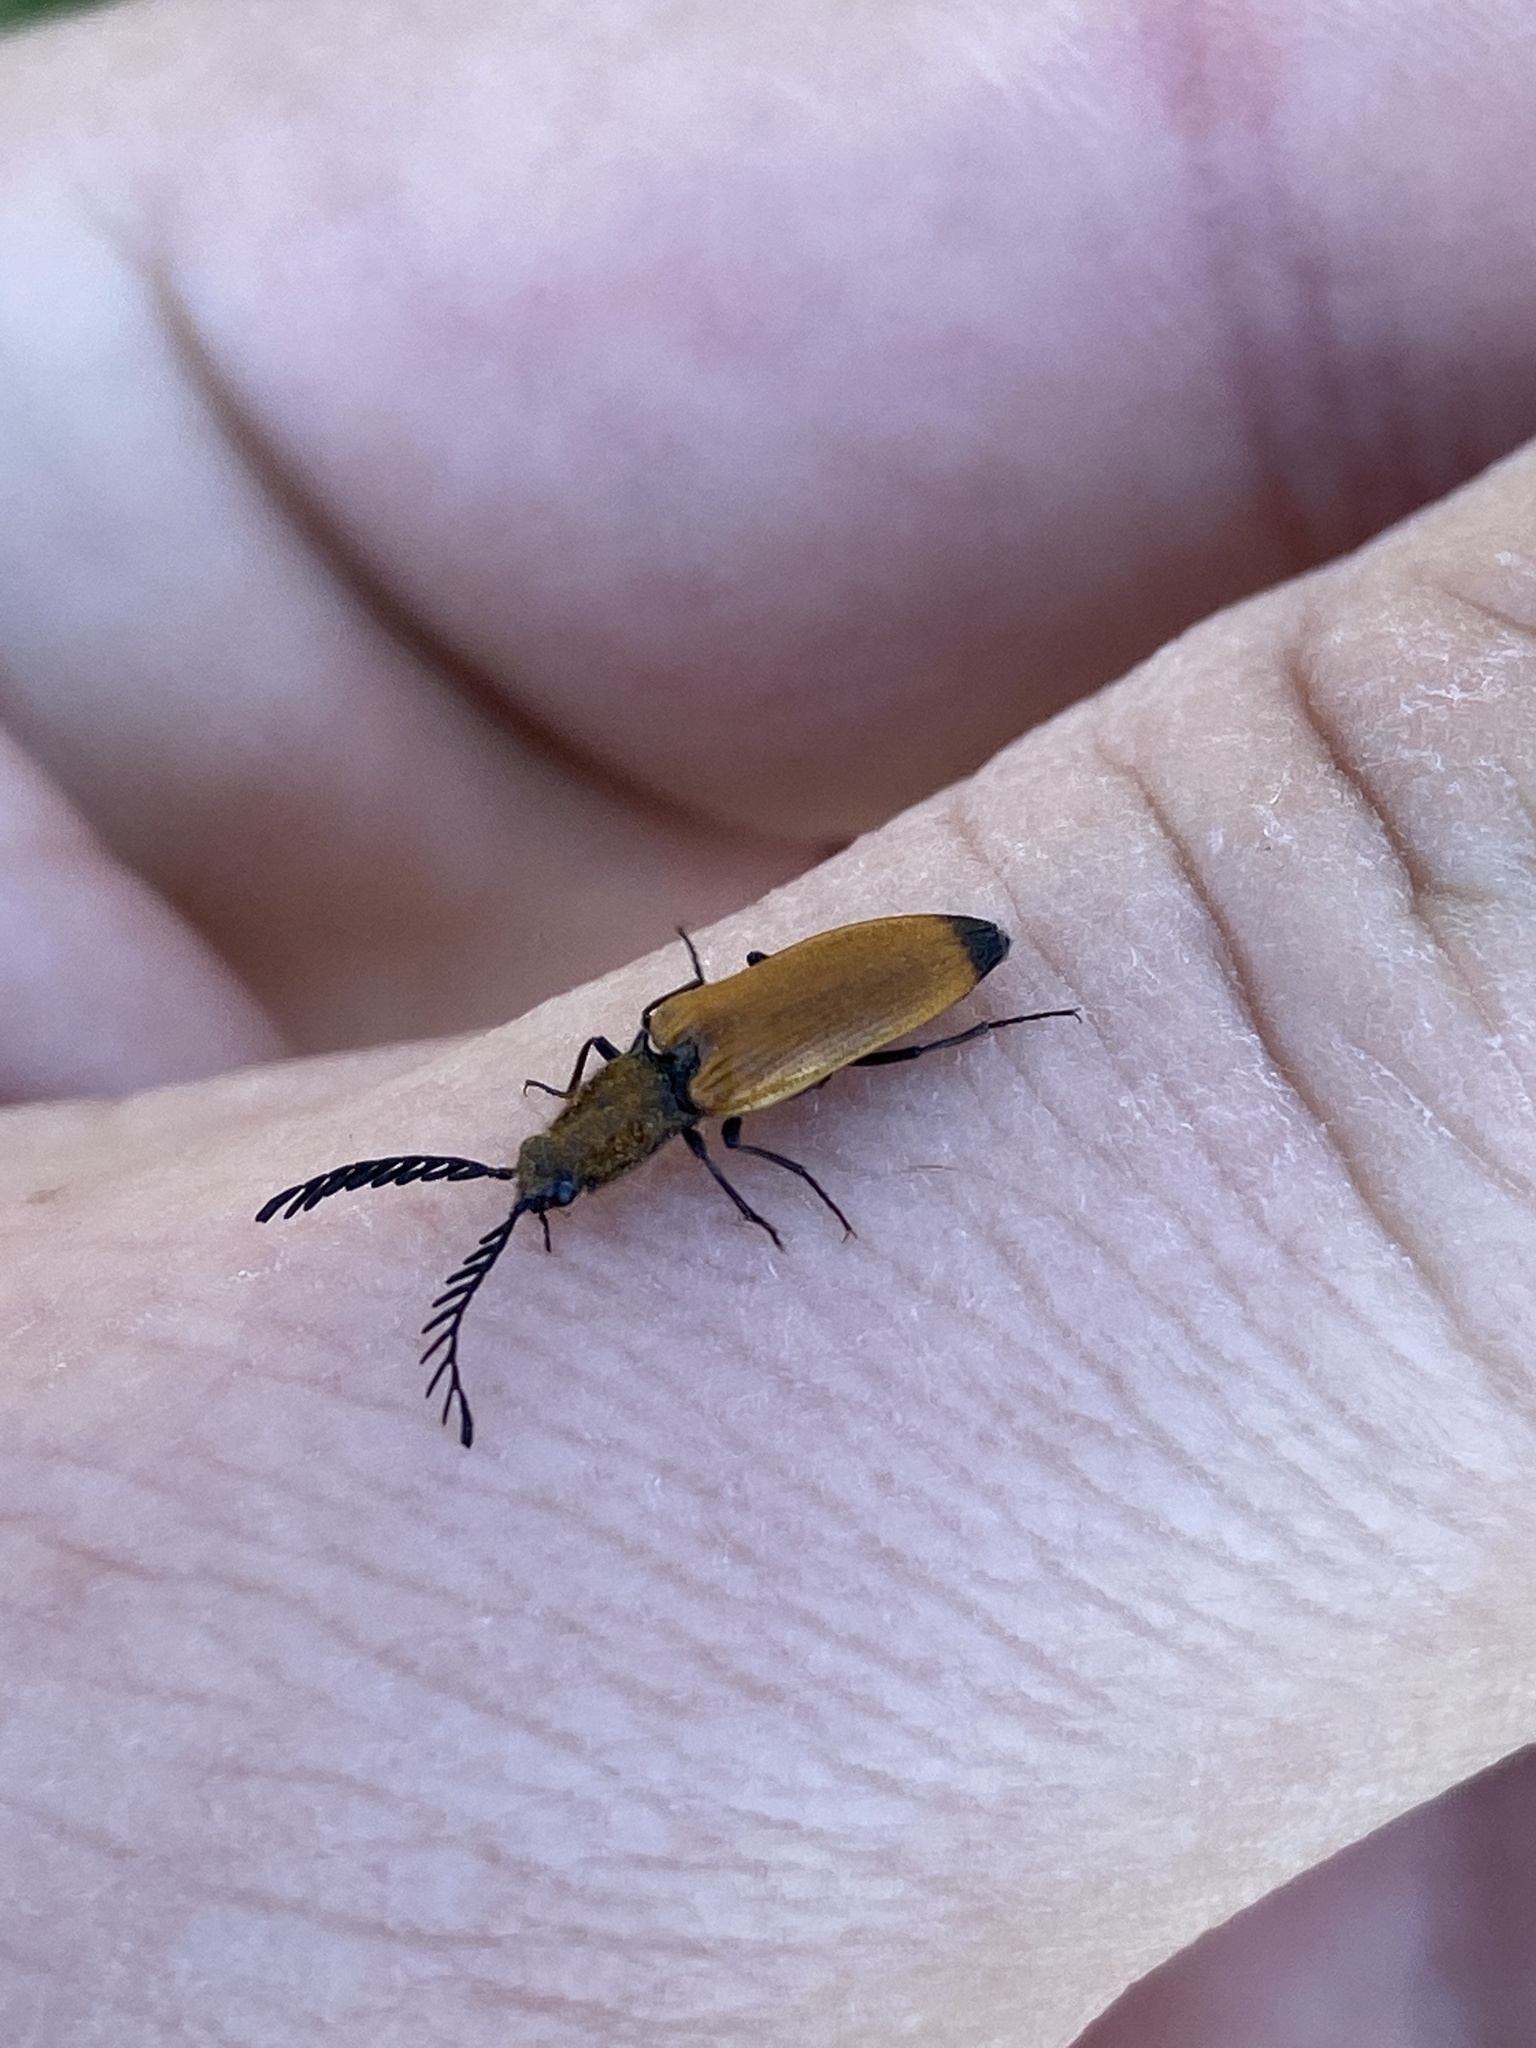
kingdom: Animalia
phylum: Arthropoda
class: Insecta
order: Coleoptera
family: Elateridae
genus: Anostirus
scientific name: Anostirus castaneus
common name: Chestnut coloured click beetle
